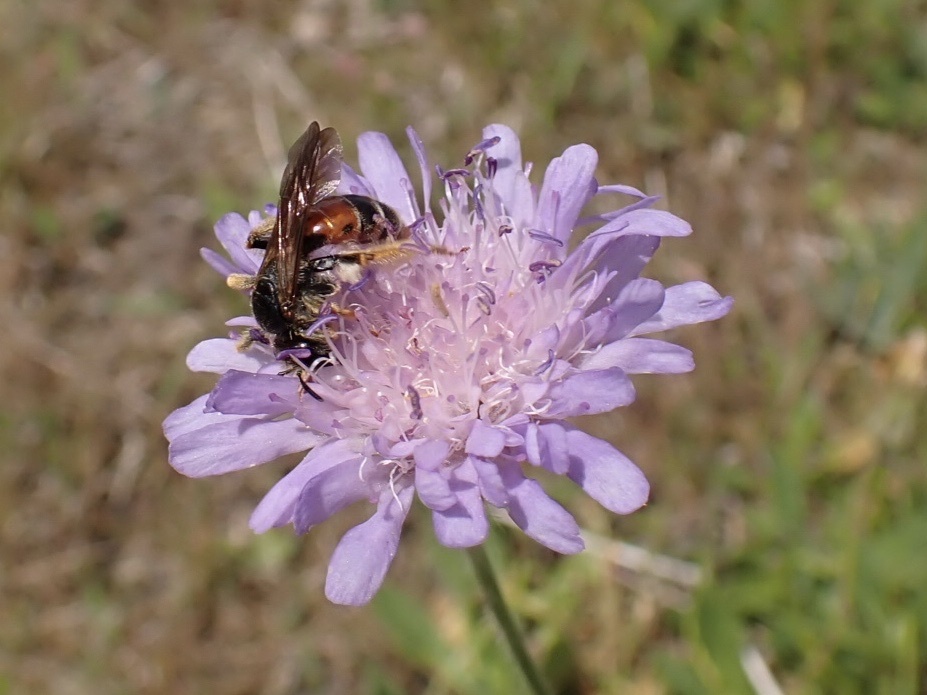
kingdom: Animalia
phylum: Arthropoda
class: Insecta
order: Hymenoptera
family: Andrenidae
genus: Andrena
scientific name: Andrena hattorfiana
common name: Large scabious mining bee
